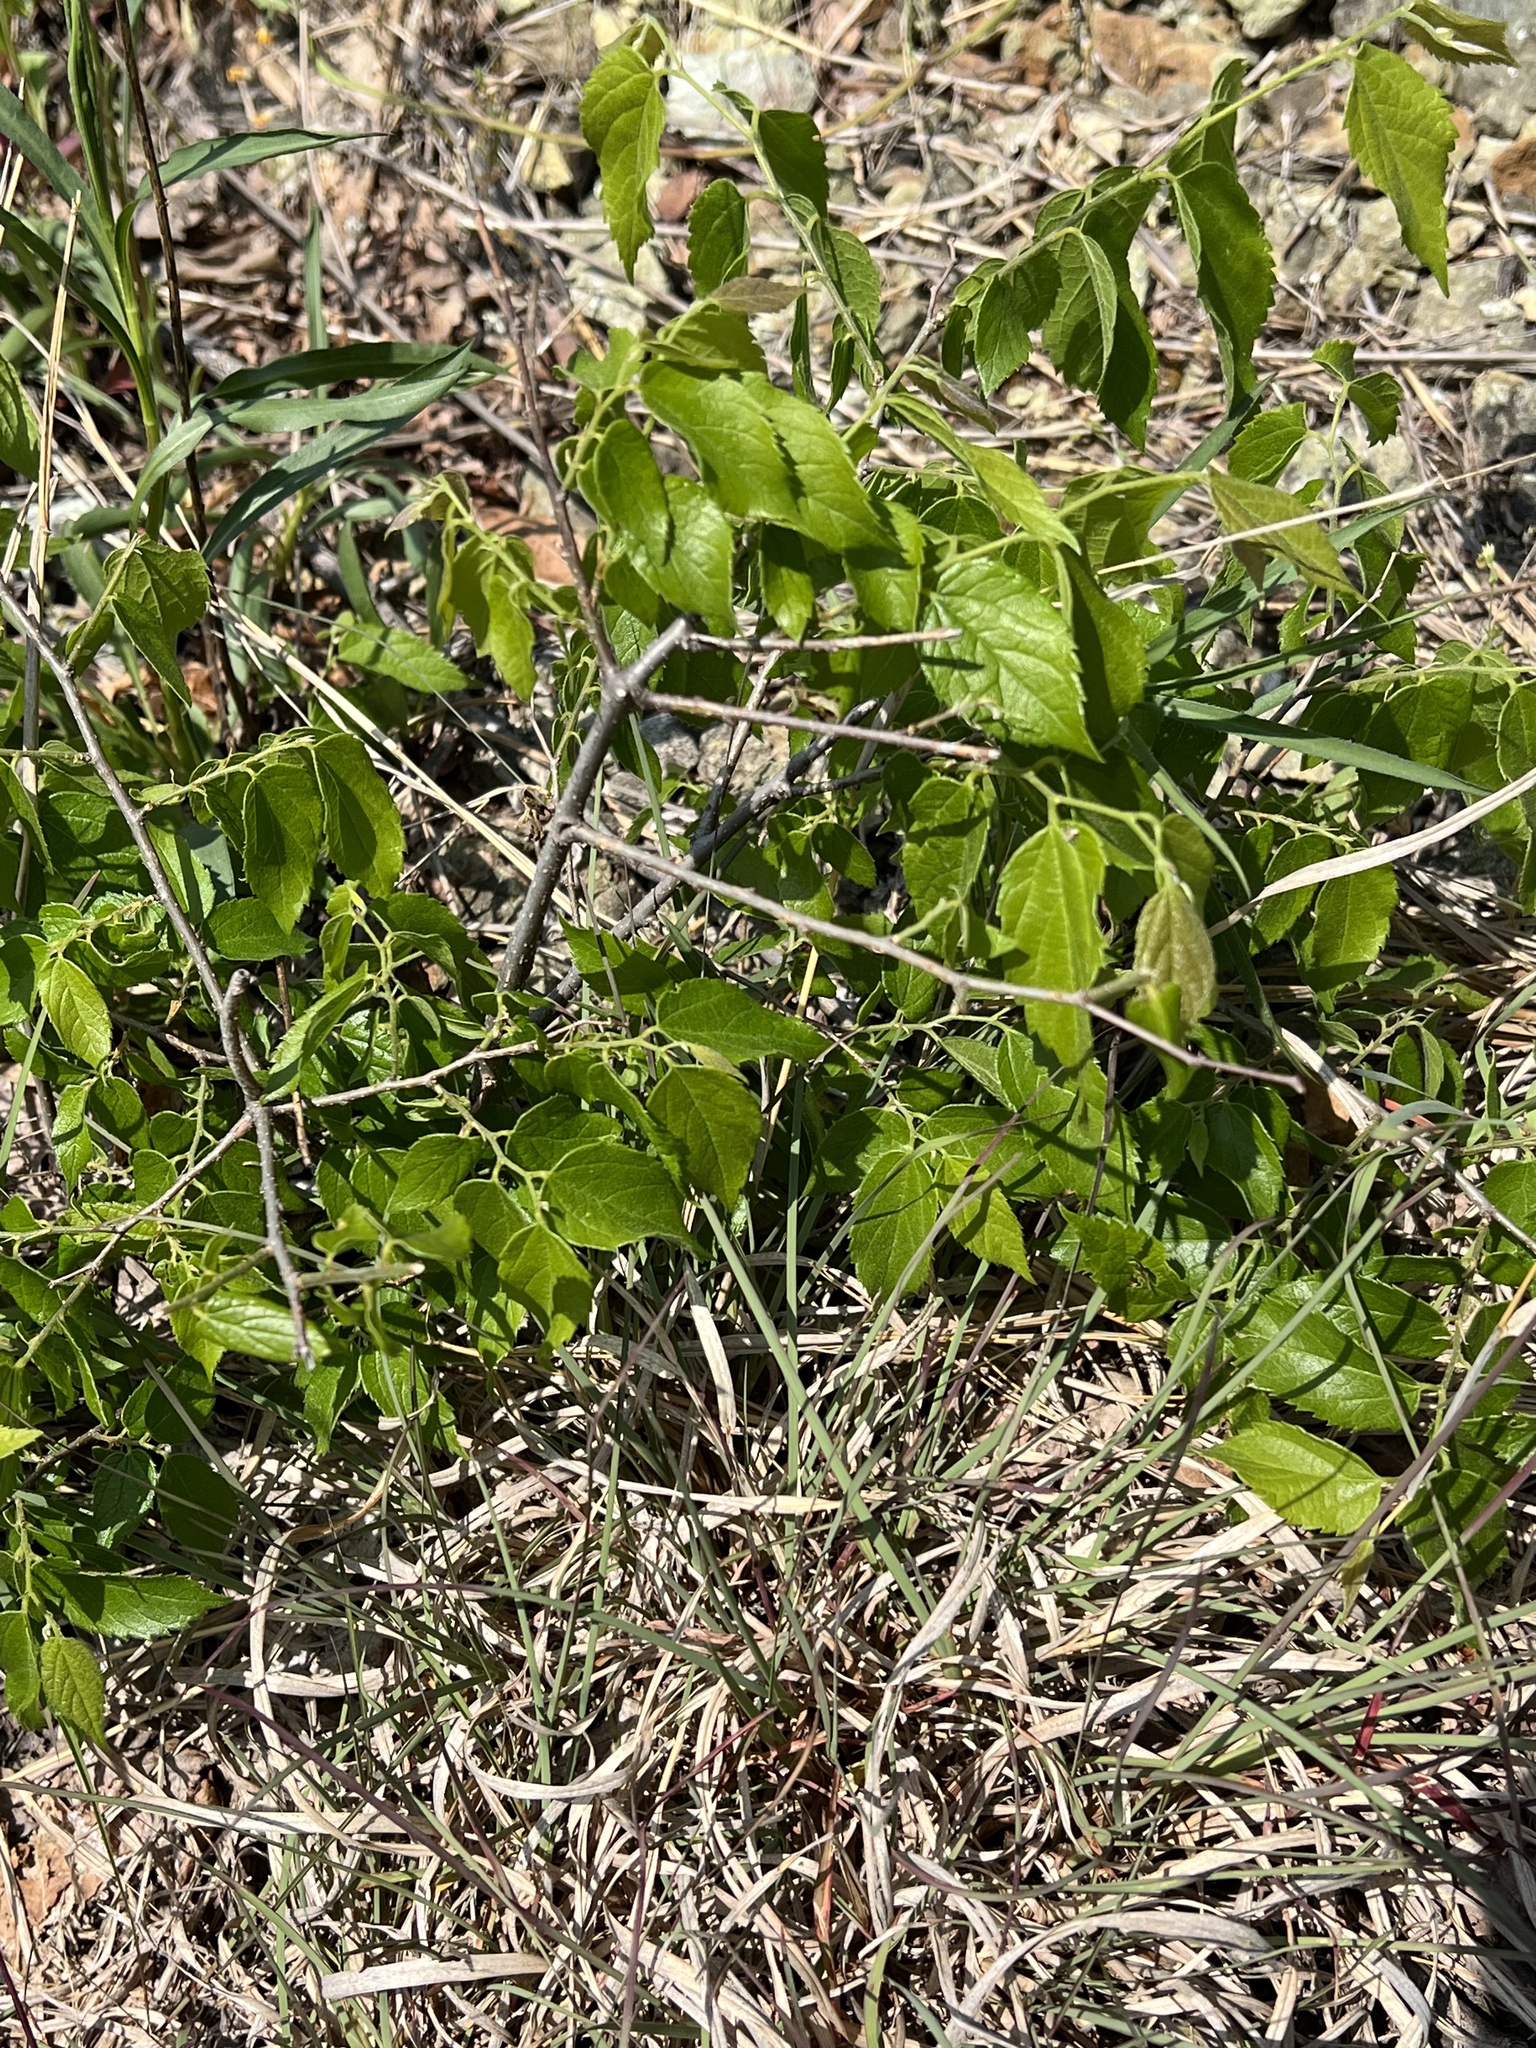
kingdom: Plantae
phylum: Tracheophyta
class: Magnoliopsida
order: Rosales
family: Cannabaceae
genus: Celtis
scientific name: Celtis occidentalis
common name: Common hackberry
